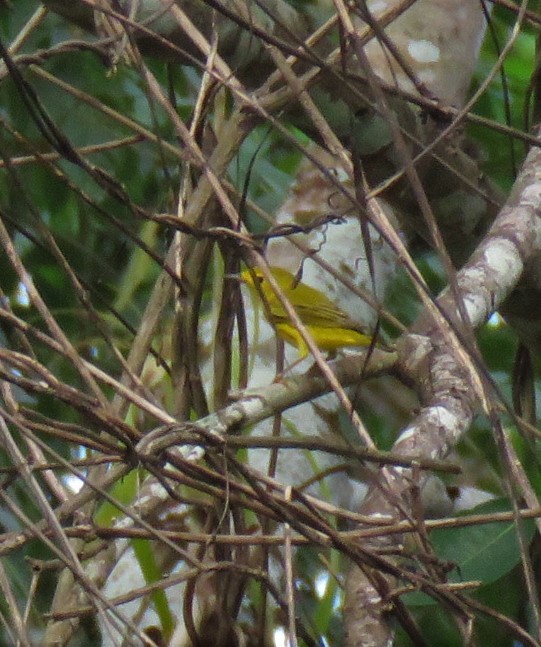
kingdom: Animalia
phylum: Chordata
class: Aves
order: Passeriformes
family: Parulidae
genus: Setophaga
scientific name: Setophaga petechia
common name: Yellow warbler
